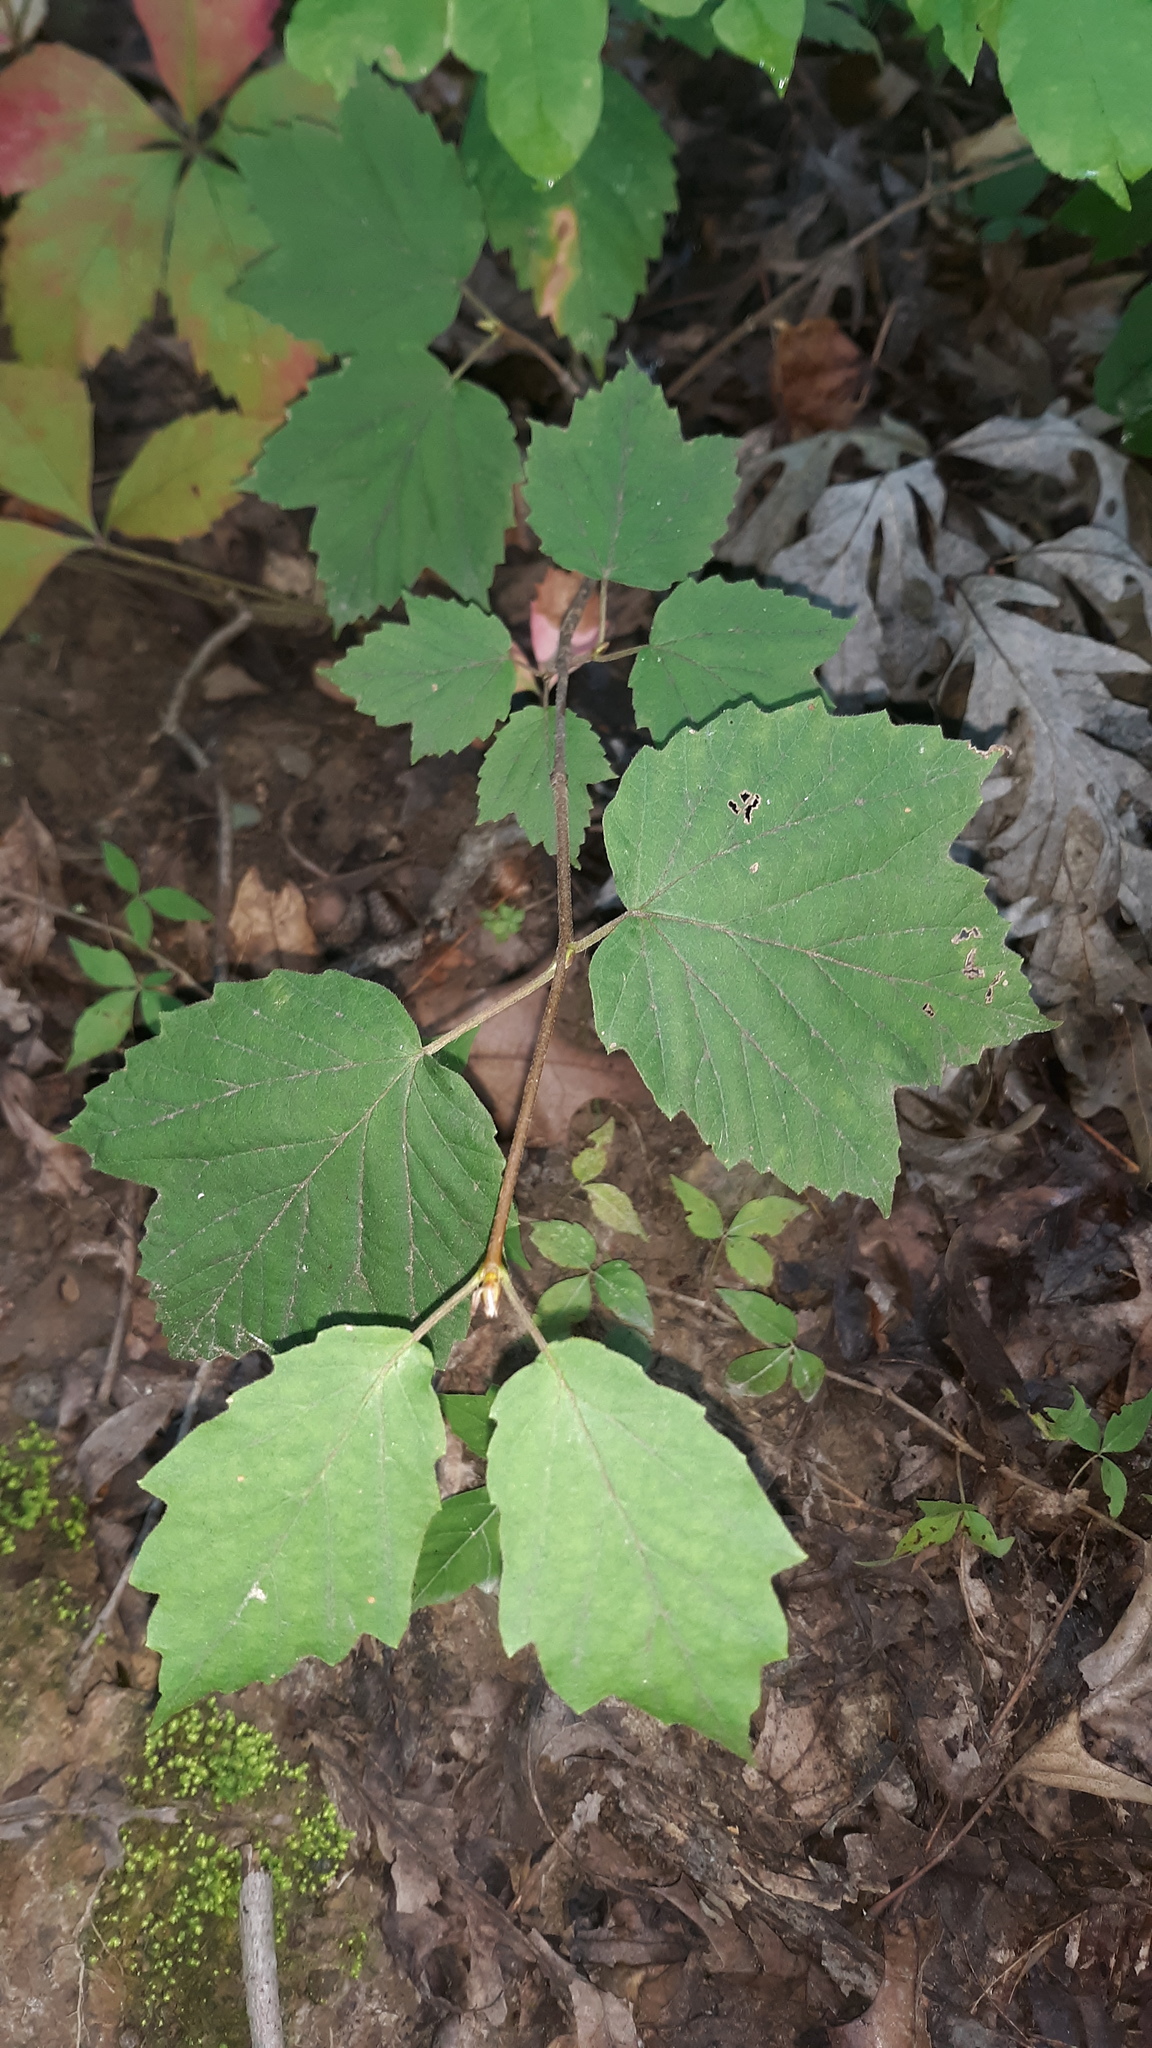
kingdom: Plantae
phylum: Tracheophyta
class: Magnoliopsida
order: Dipsacales
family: Viburnaceae
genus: Viburnum
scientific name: Viburnum acerifolium
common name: Dockmackie
